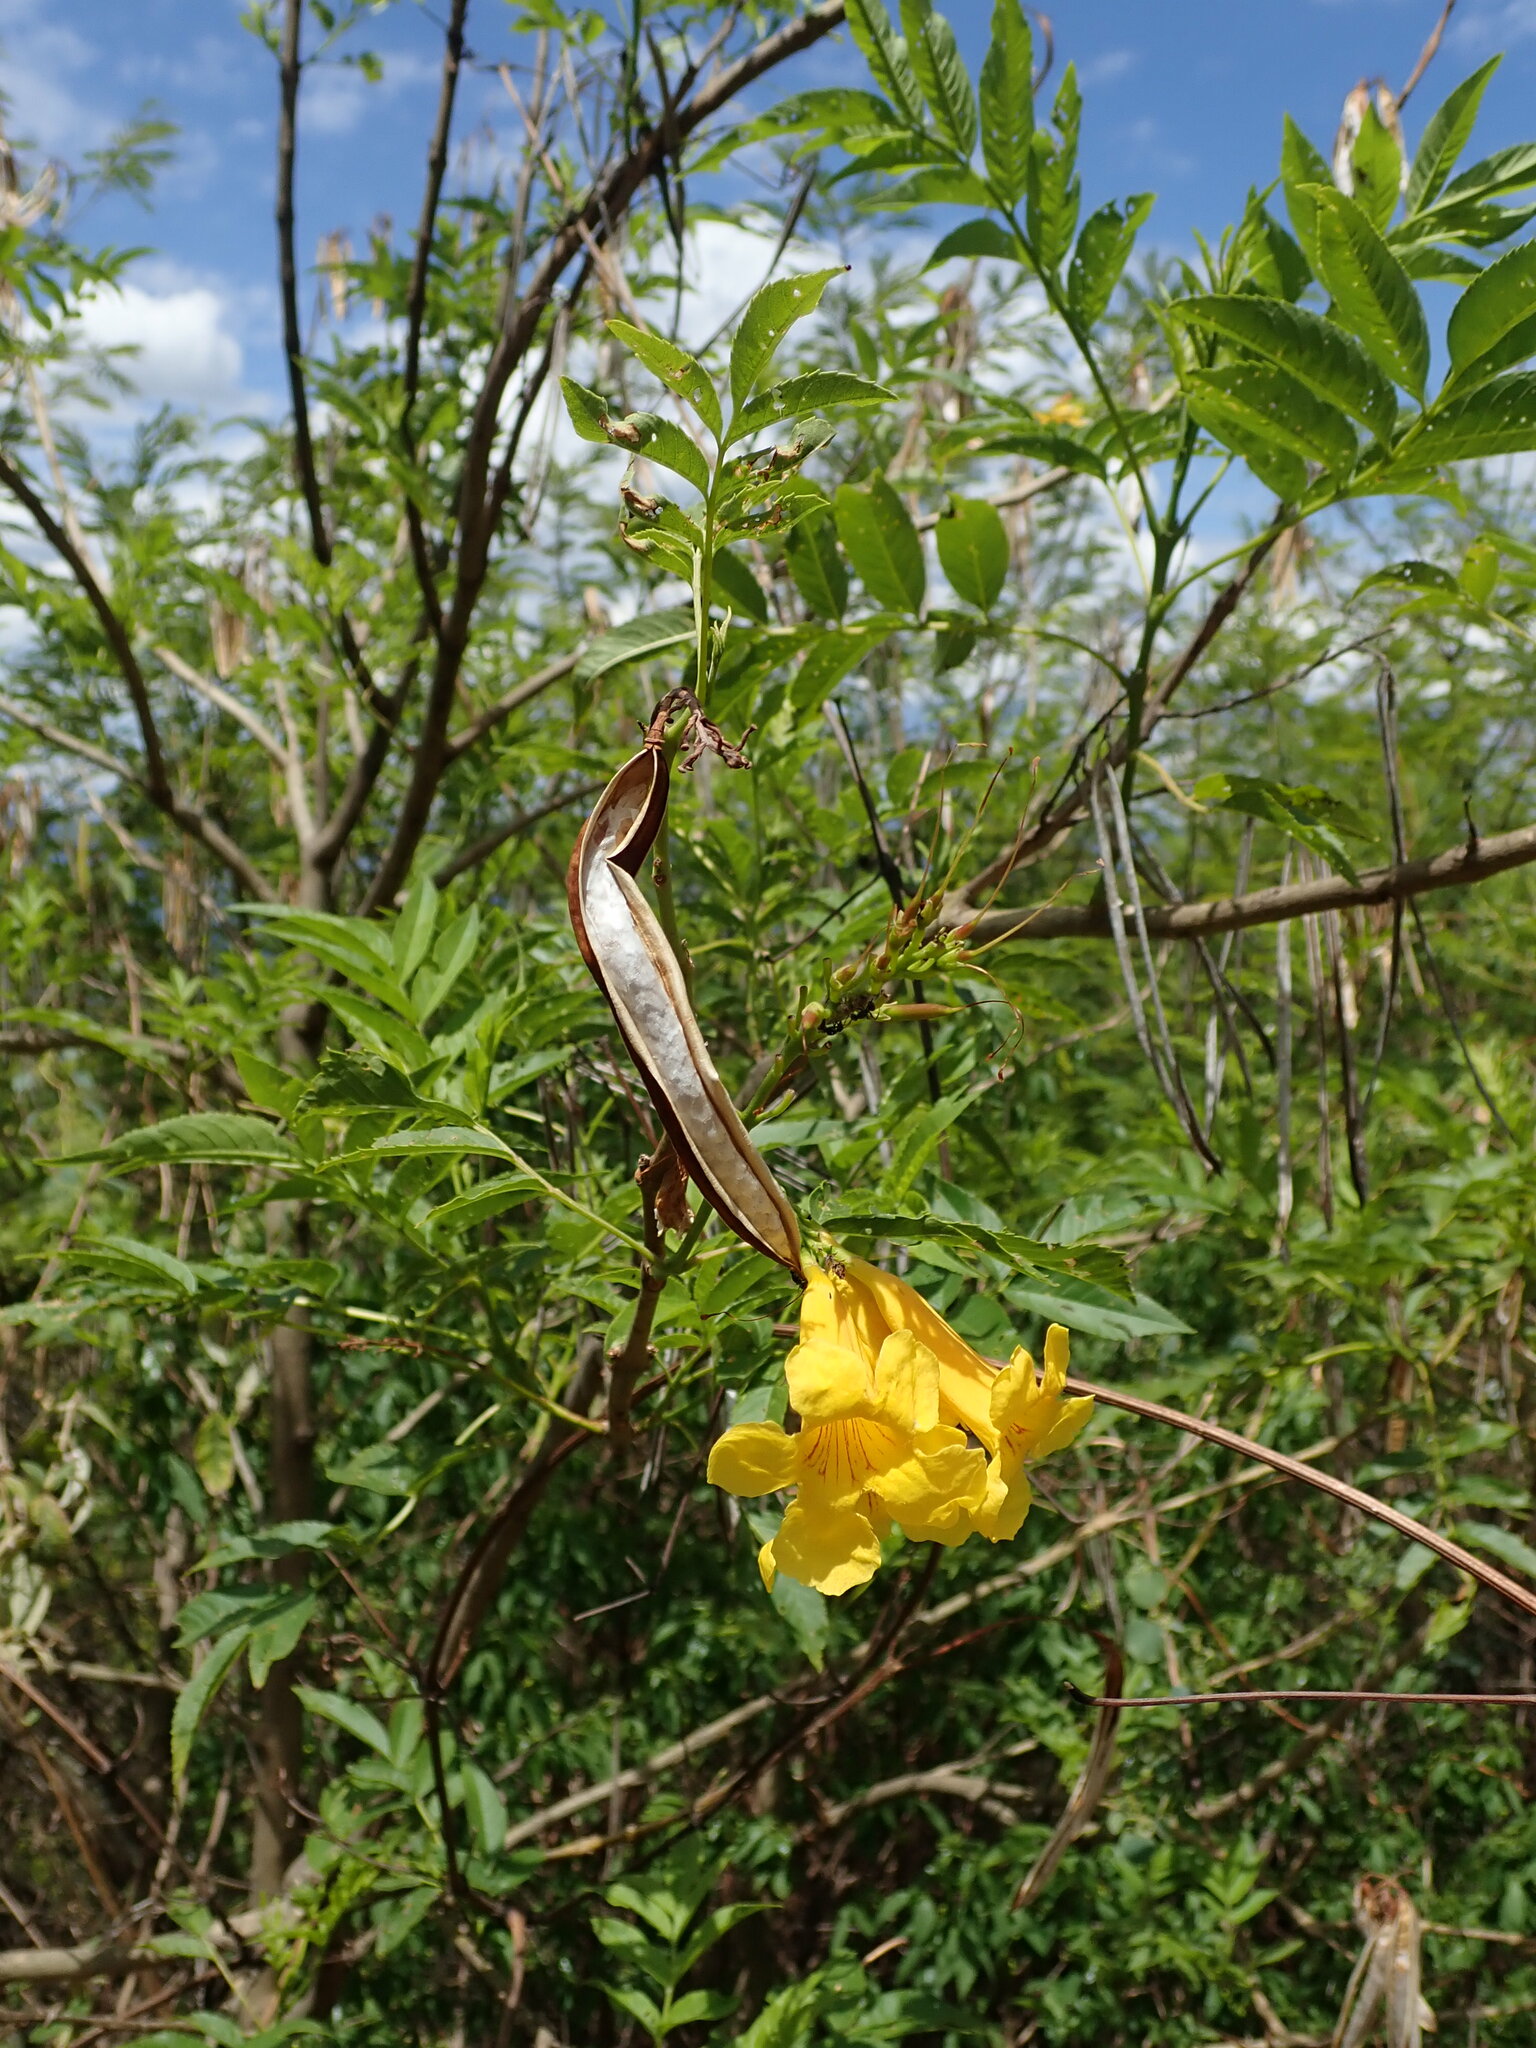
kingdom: Plantae
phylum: Tracheophyta
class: Magnoliopsida
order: Lamiales
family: Bignoniaceae
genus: Tecoma
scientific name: Tecoma stans
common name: Yellow trumpetbush
